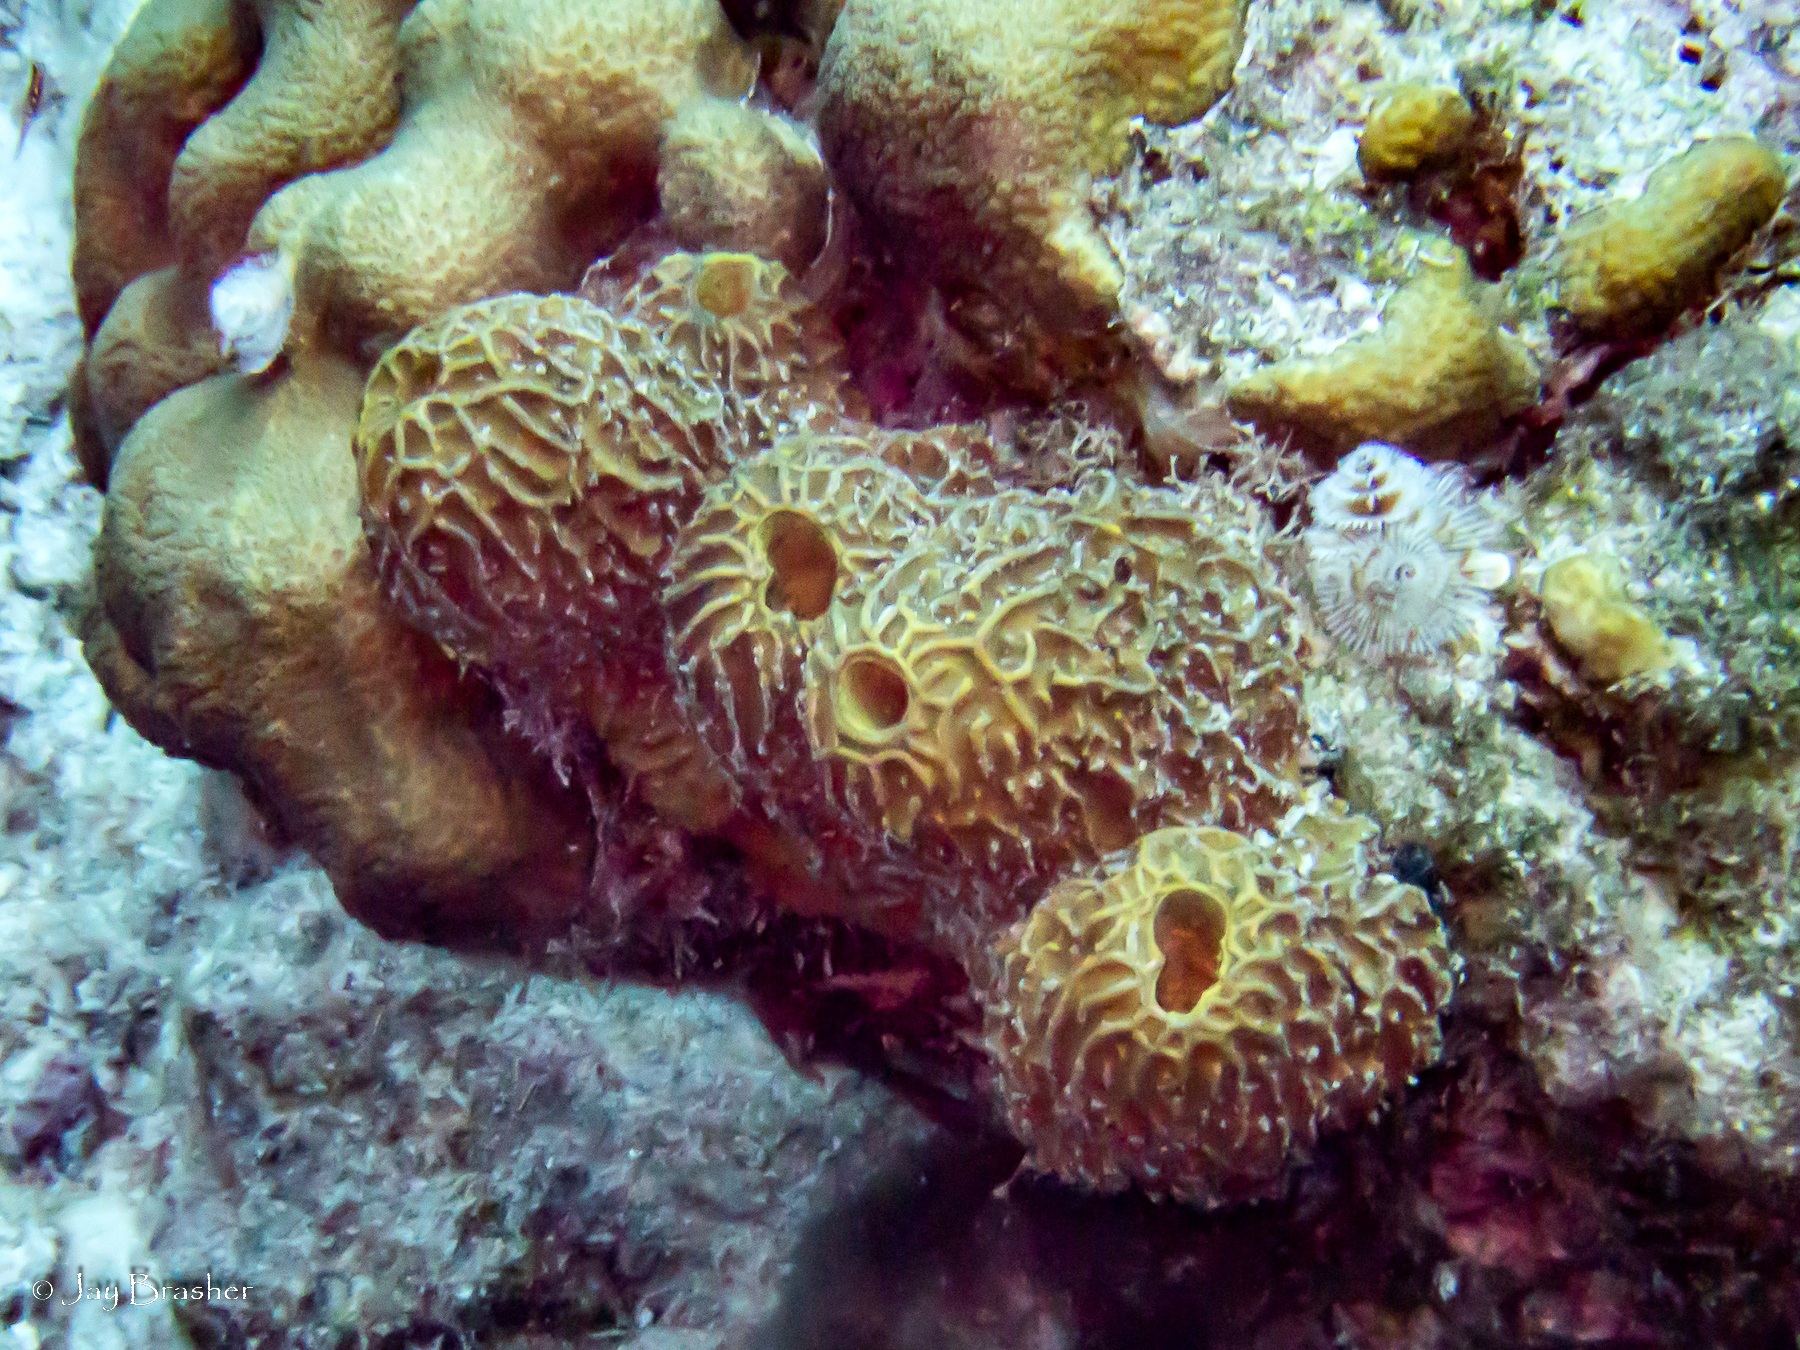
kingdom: Animalia
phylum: Porifera
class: Demospongiae
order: Verongiida
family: Aplysinidae
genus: Verongula
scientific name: Verongula rigida
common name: Pitted sponge
